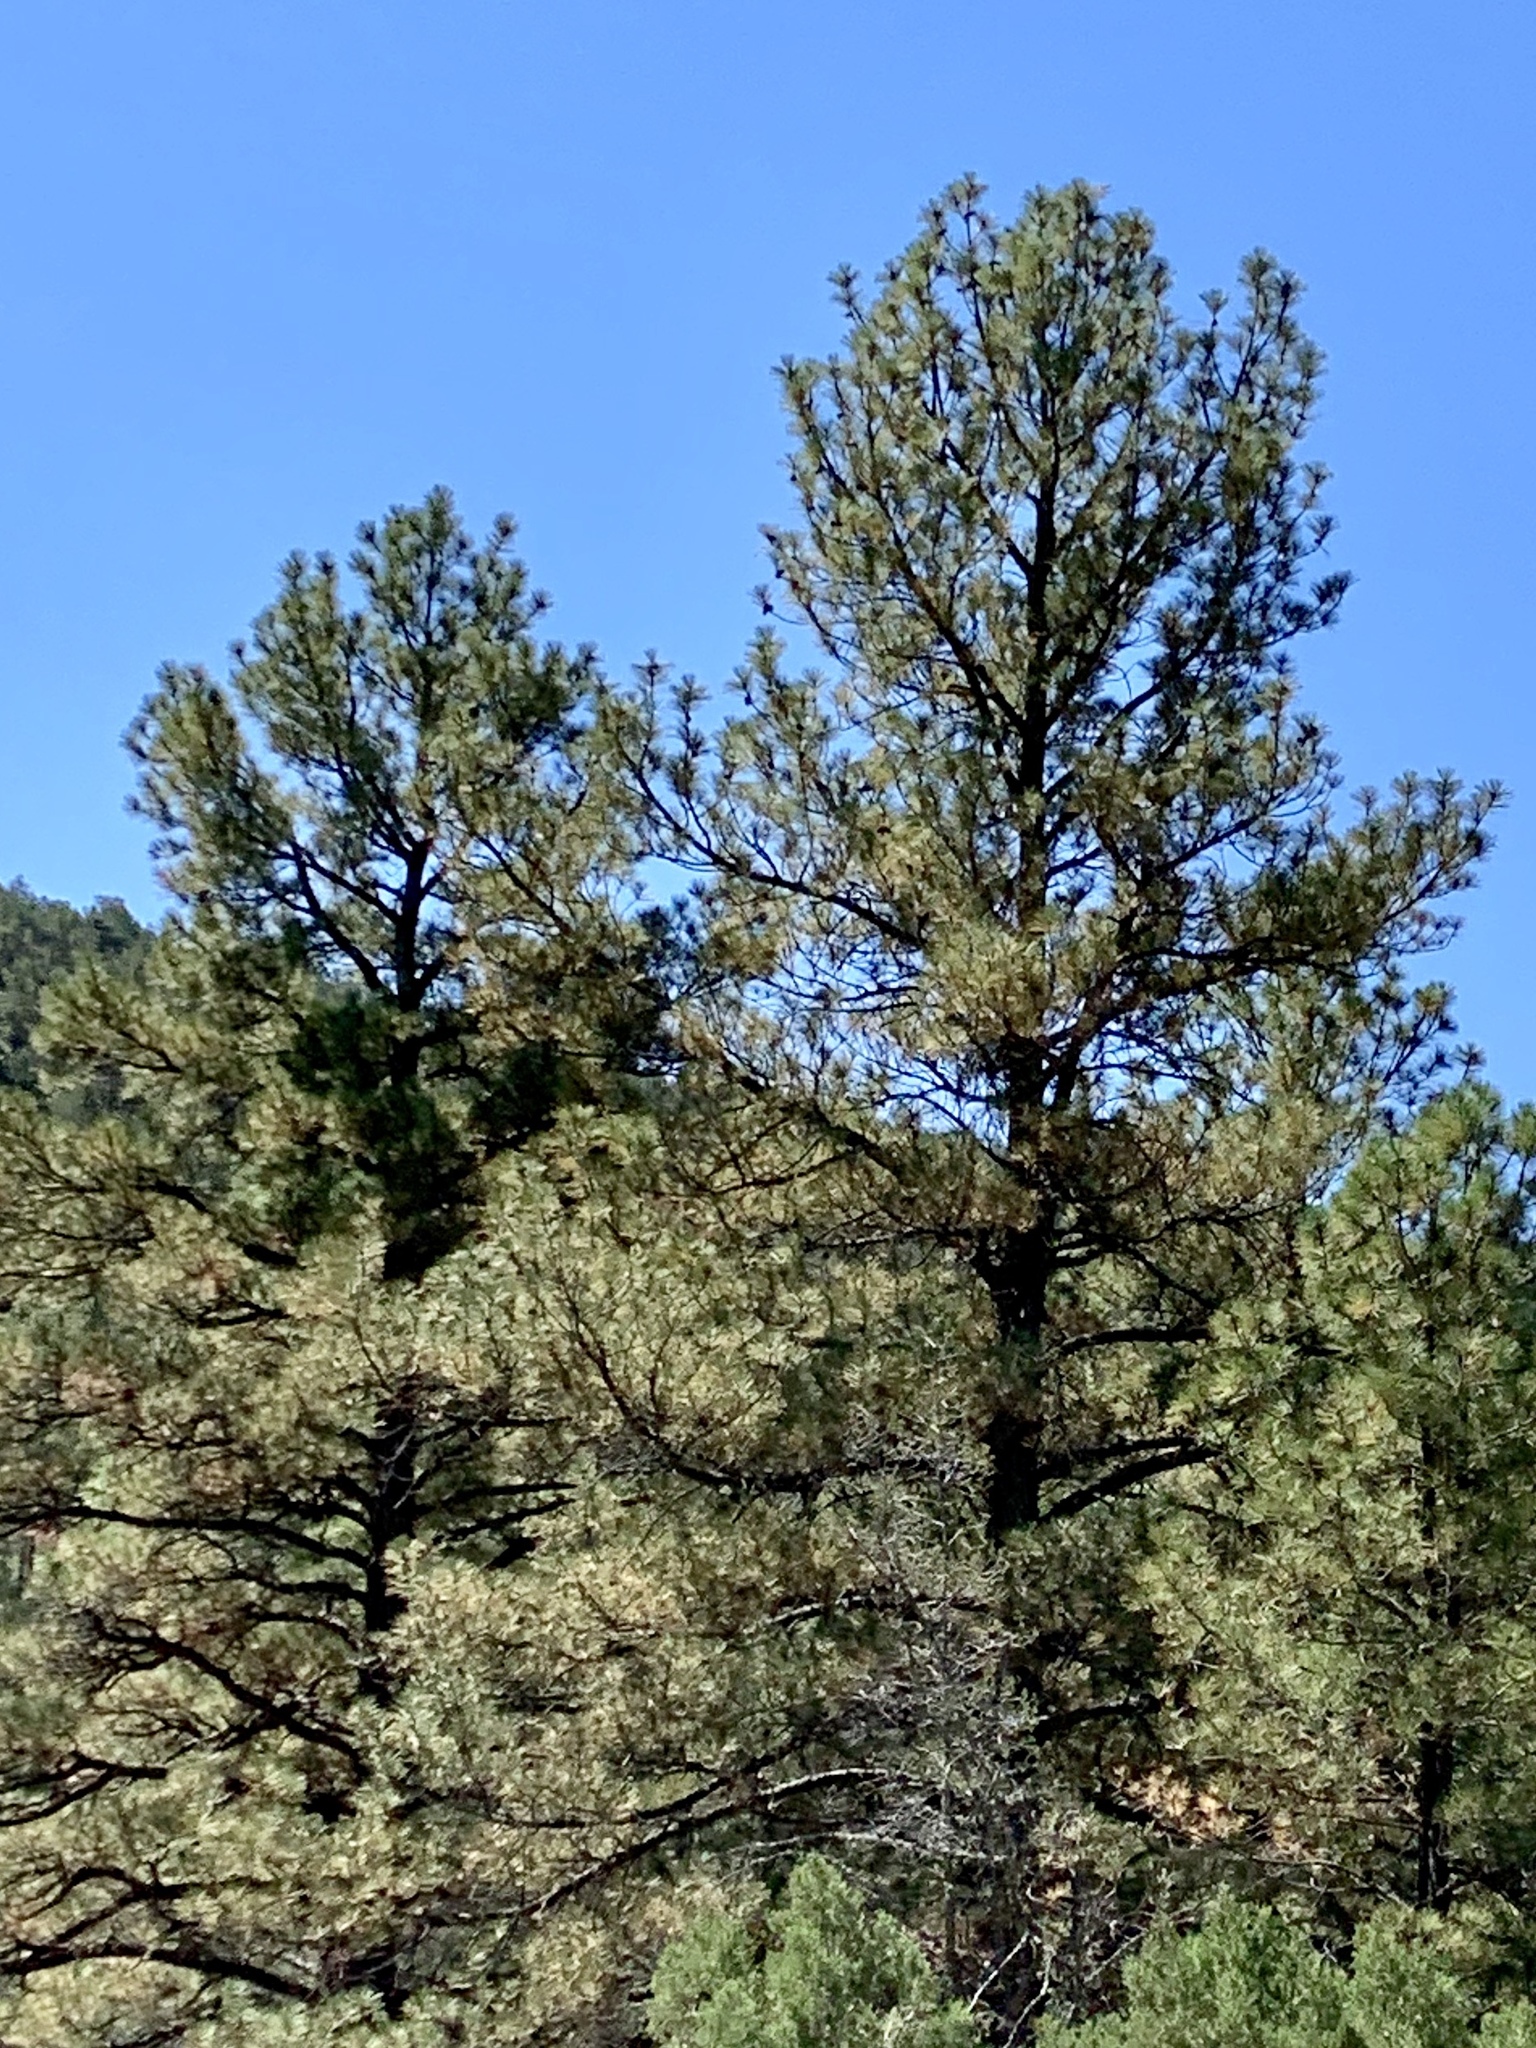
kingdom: Plantae
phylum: Tracheophyta
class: Pinopsida
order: Pinales
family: Pinaceae
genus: Pinus
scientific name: Pinus ponderosa
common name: Western yellow-pine
